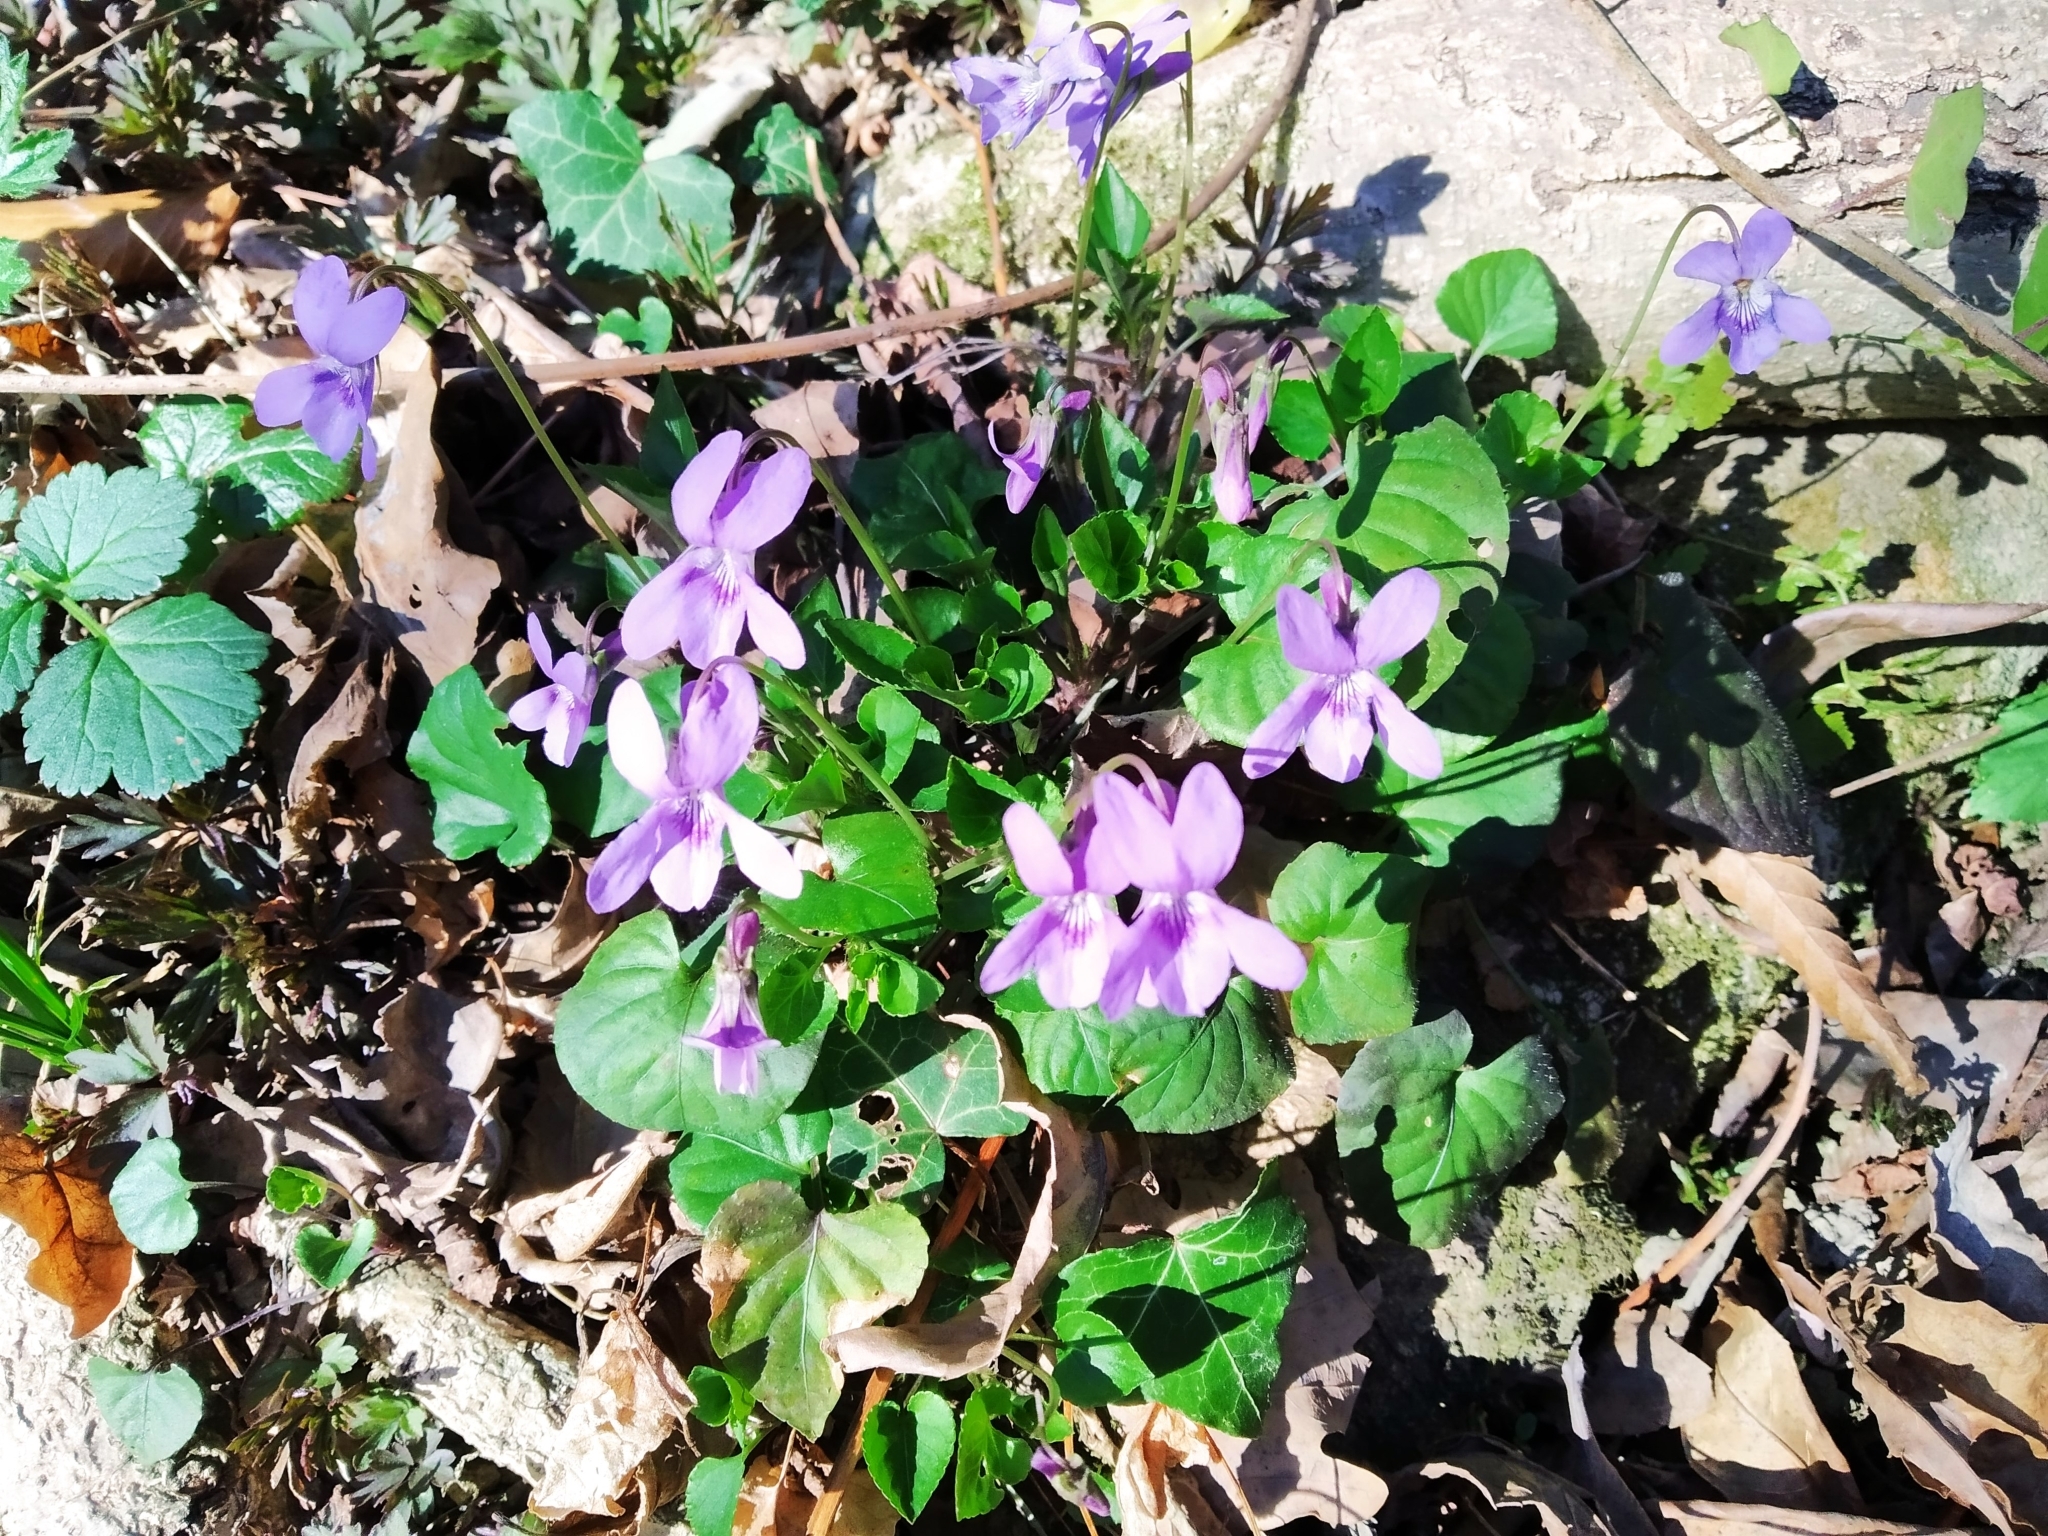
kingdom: Plantae
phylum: Tracheophyta
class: Magnoliopsida
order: Malpighiales
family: Violaceae
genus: Viola
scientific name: Viola reichenbachiana
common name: Early dog-violet
